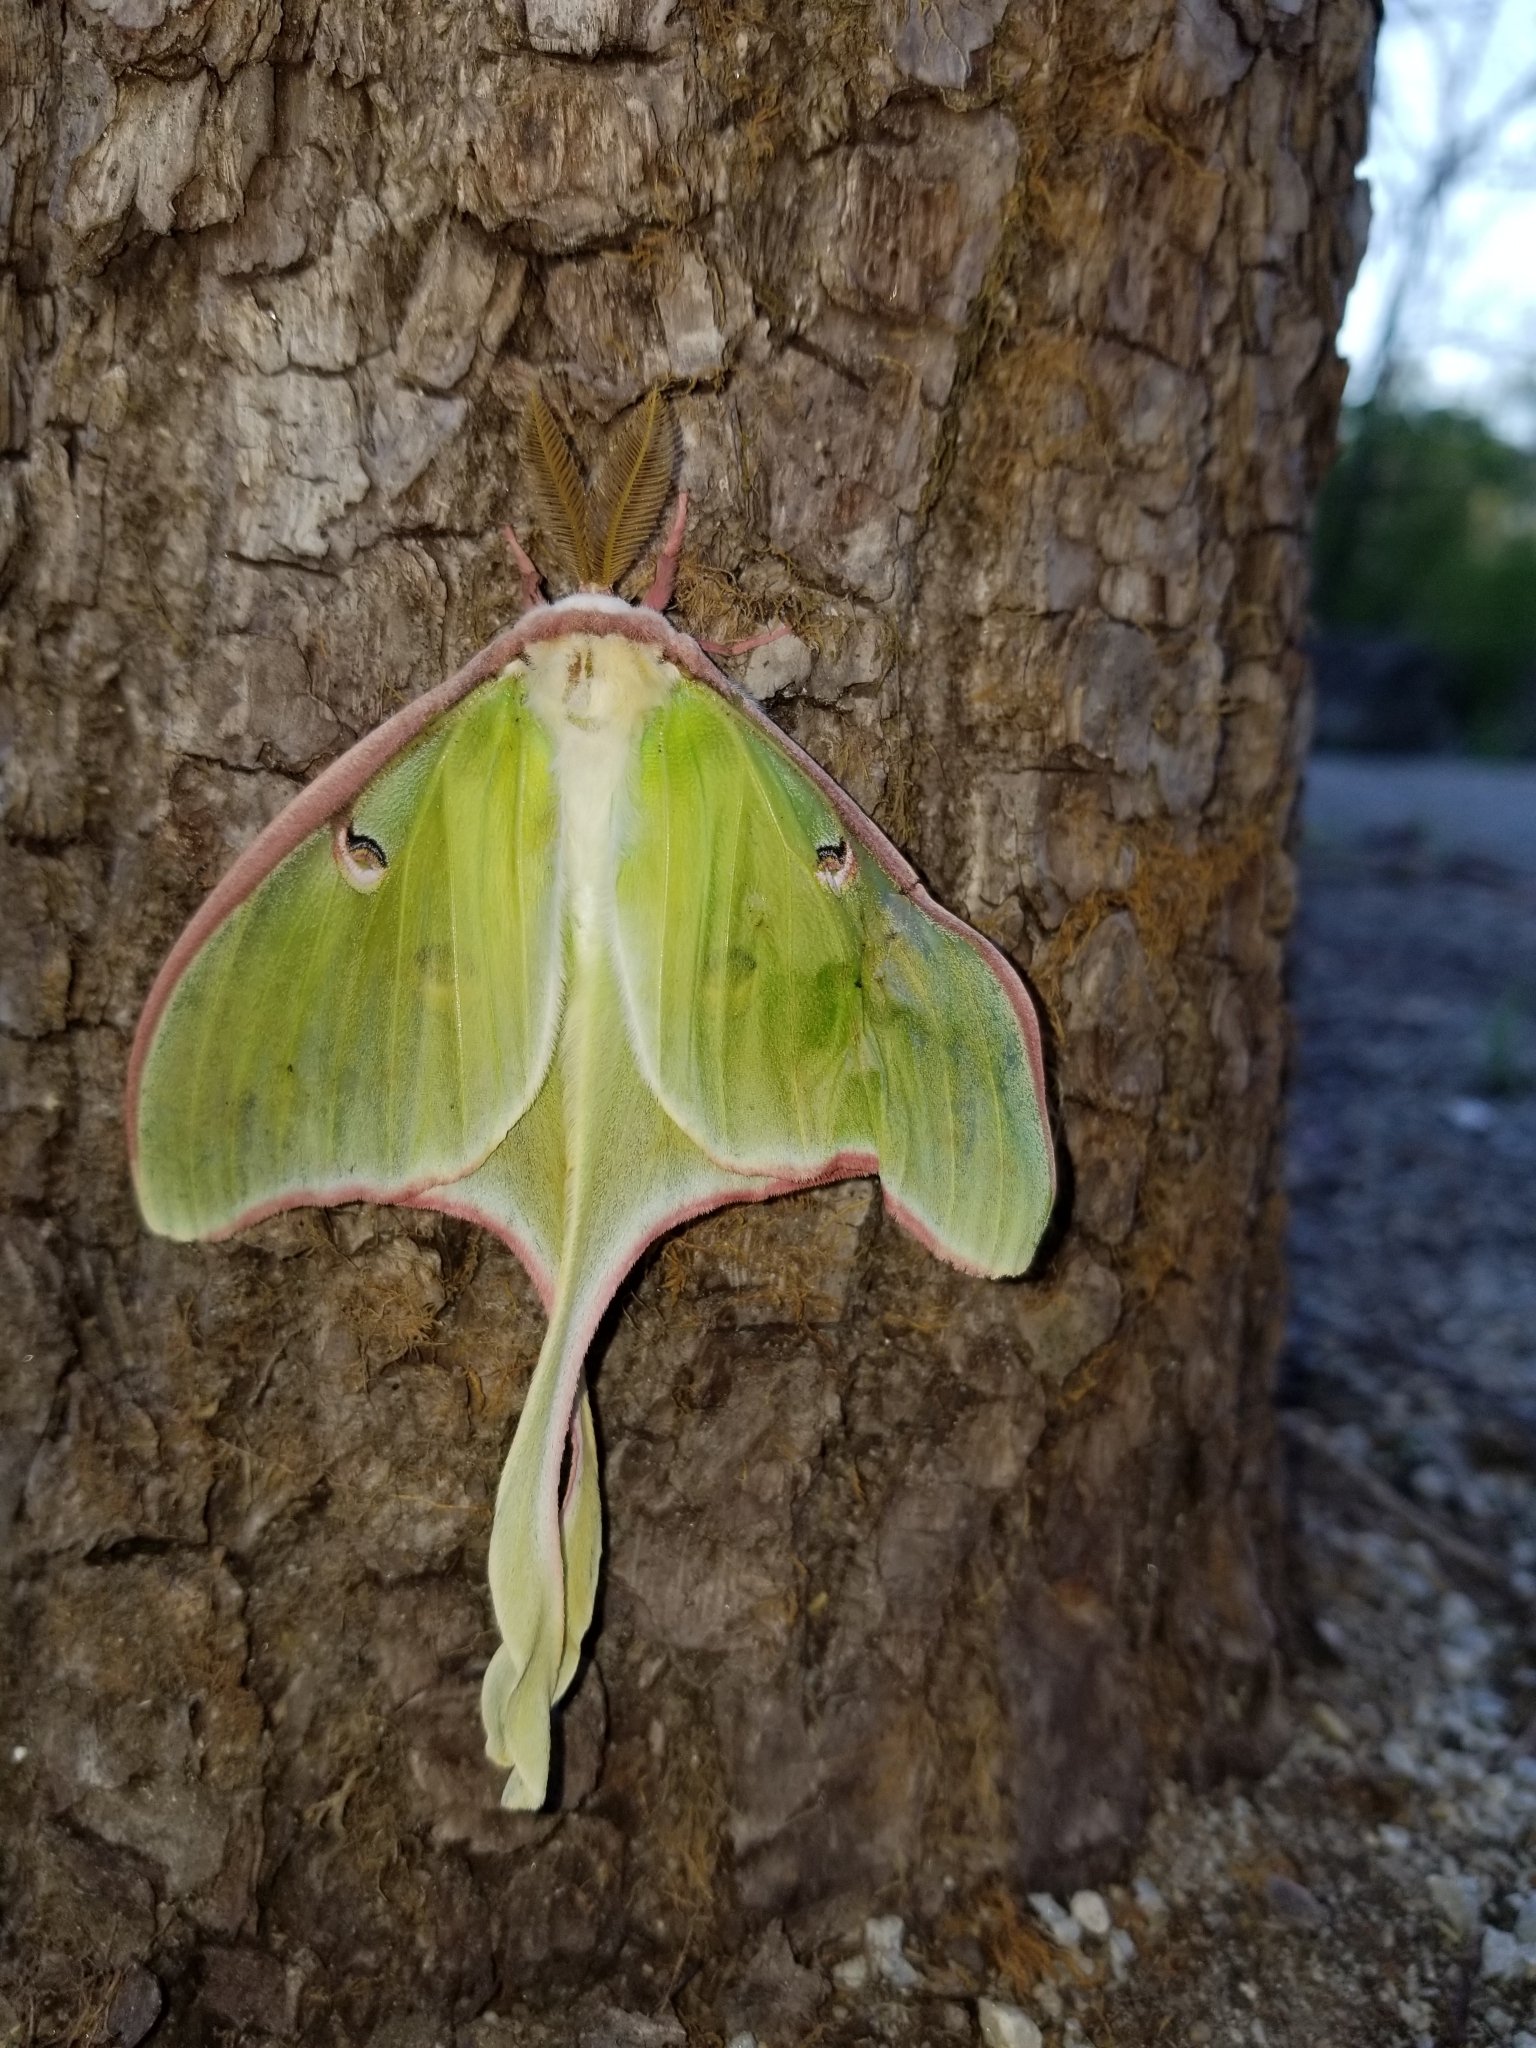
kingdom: Animalia
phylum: Arthropoda
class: Insecta
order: Lepidoptera
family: Saturniidae
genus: Actias
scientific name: Actias luna
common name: Luna moth
